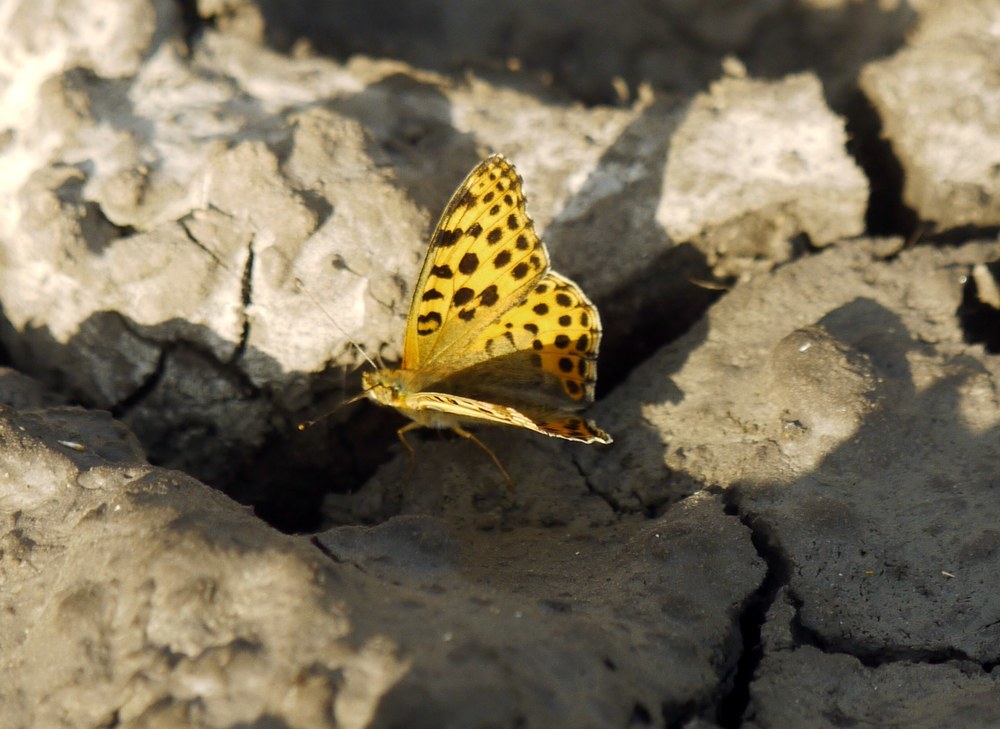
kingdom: Animalia
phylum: Arthropoda
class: Insecta
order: Lepidoptera
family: Nymphalidae
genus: Issoria
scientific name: Issoria lathonia
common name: Queen of spain fritillary
